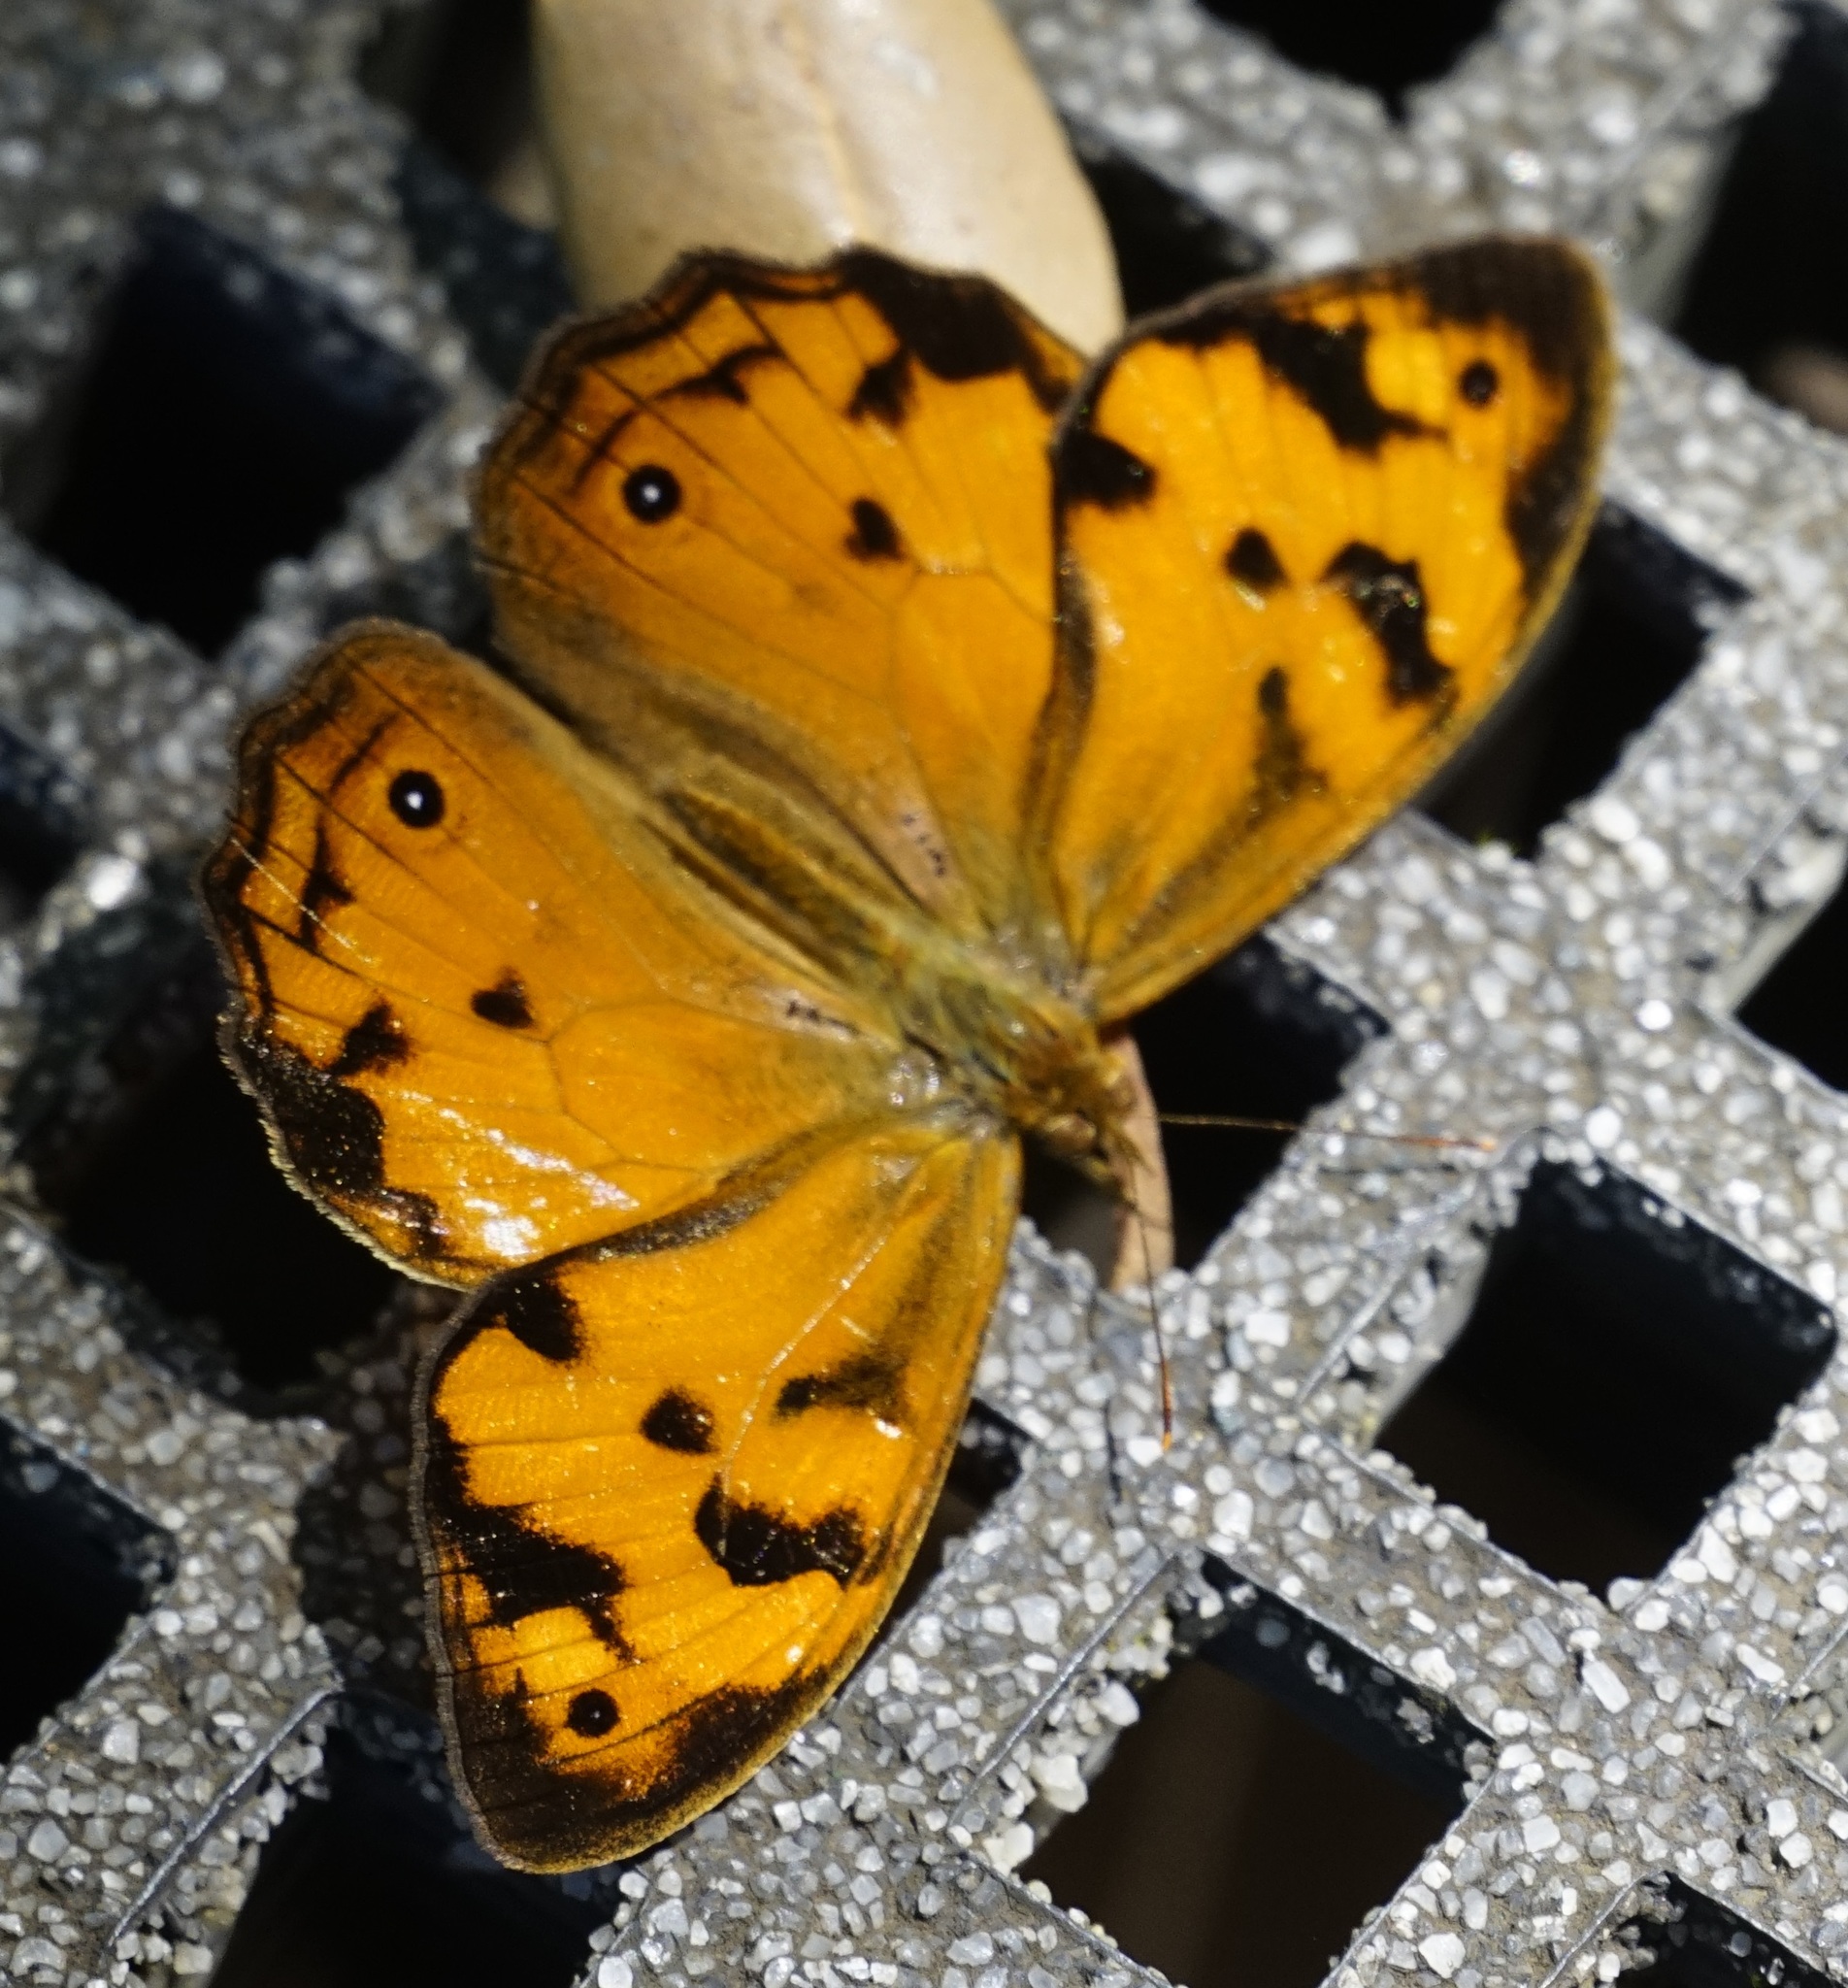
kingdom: Animalia
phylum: Arthropoda
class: Insecta
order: Lepidoptera
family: Nymphalidae
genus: Heteronympha
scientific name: Heteronympha mirifica
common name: Wonder brown
